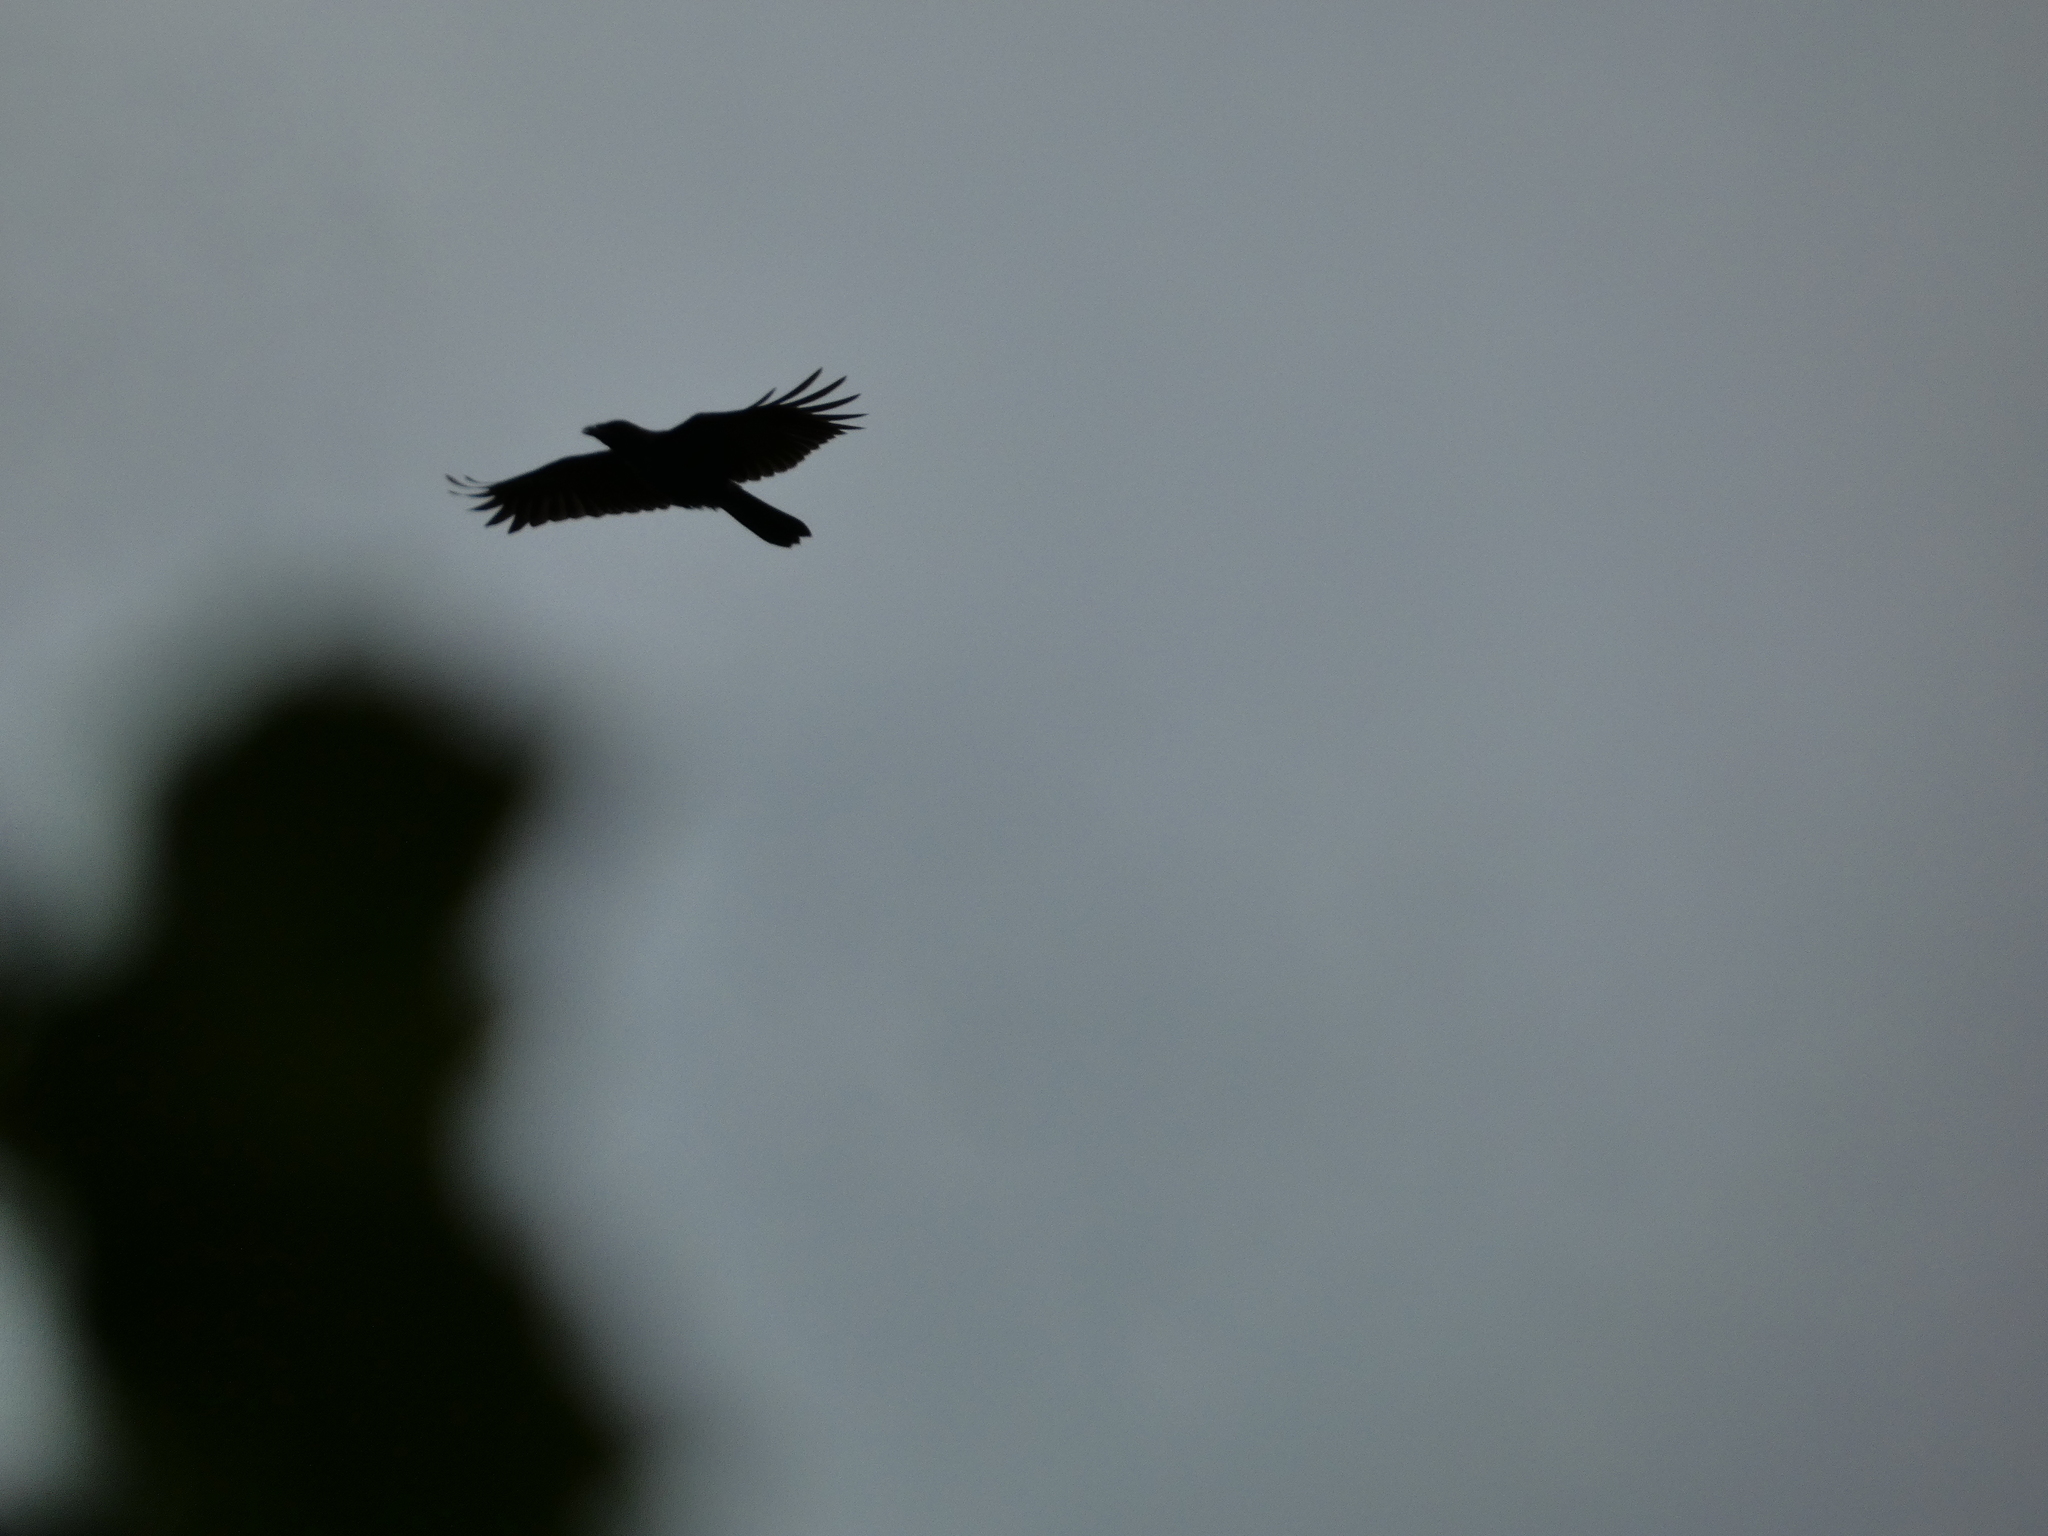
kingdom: Animalia
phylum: Chordata
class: Aves
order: Passeriformes
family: Corvidae
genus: Corvus
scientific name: Corvus corone
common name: Carrion crow
